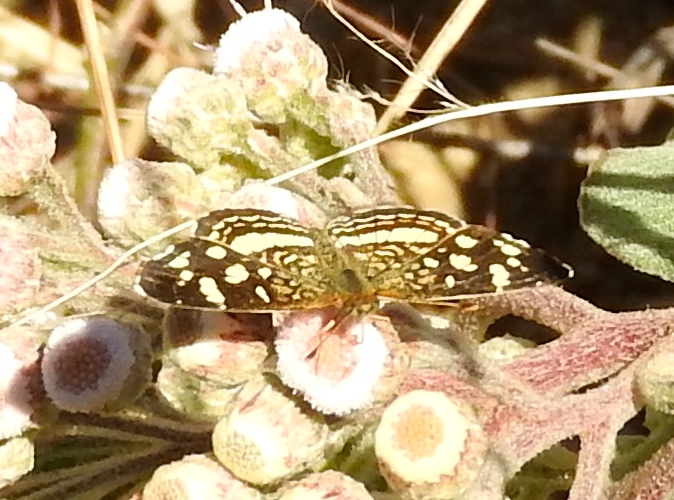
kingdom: Animalia
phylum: Arthropoda
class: Insecta
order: Lepidoptera
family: Nymphalidae
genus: Anthanassa
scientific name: Anthanassa tulcis
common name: Pale-banded crescent
